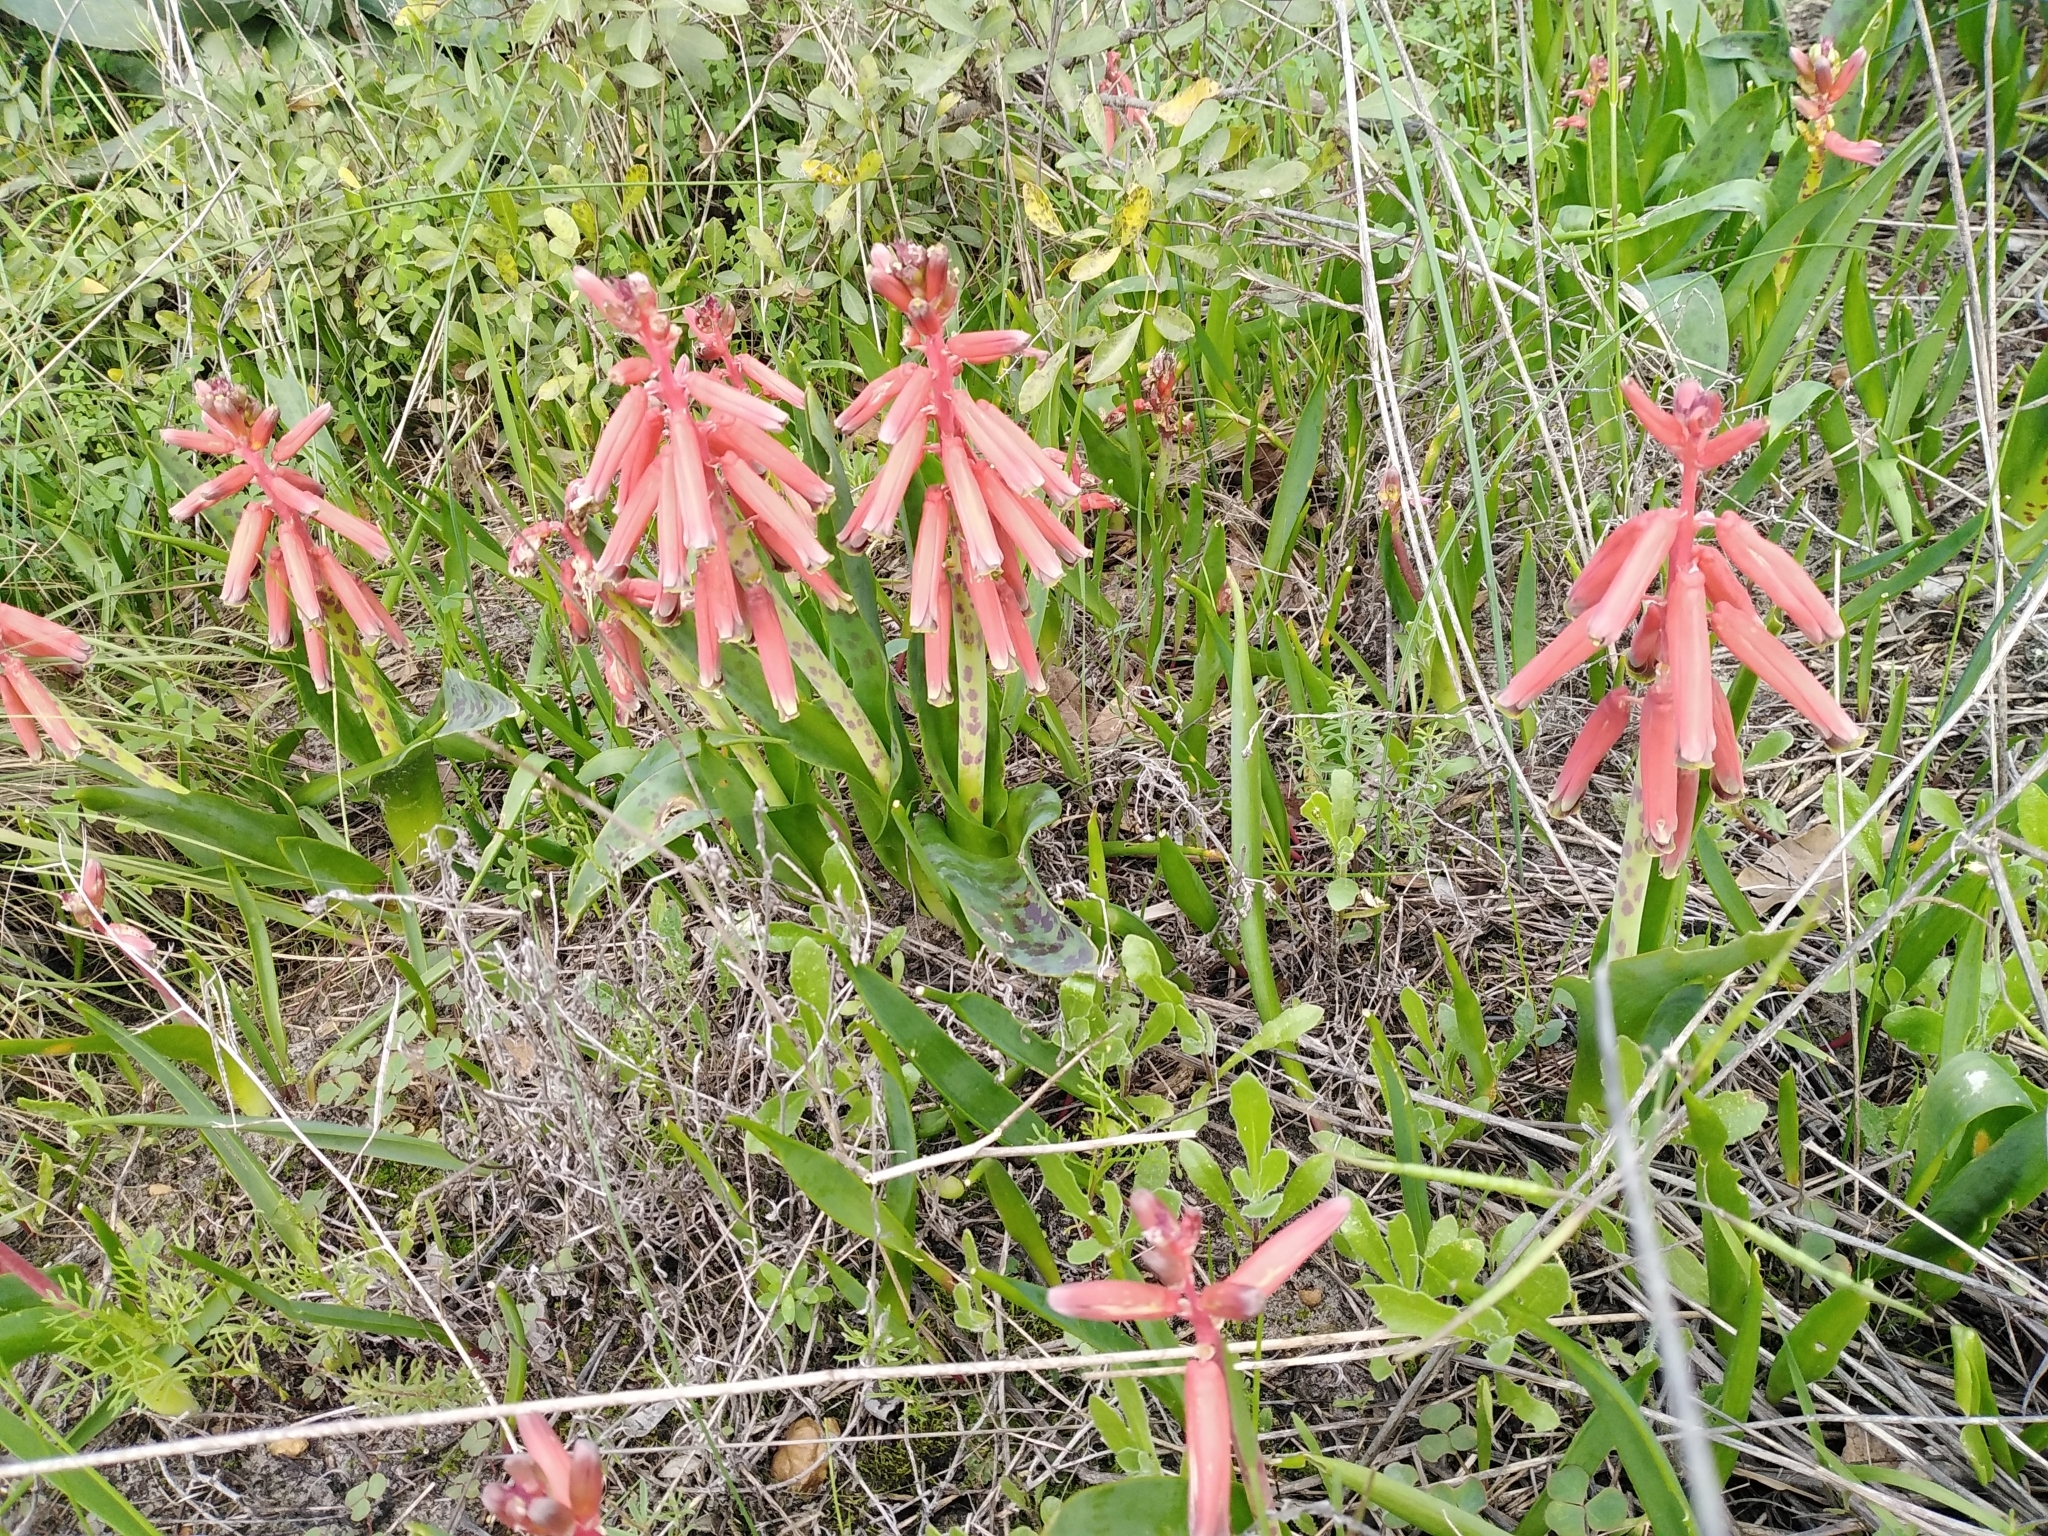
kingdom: Plantae
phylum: Tracheophyta
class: Liliopsida
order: Asparagales
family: Asparagaceae
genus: Lachenalia
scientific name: Lachenalia bulbifera
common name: Red lachenalia
